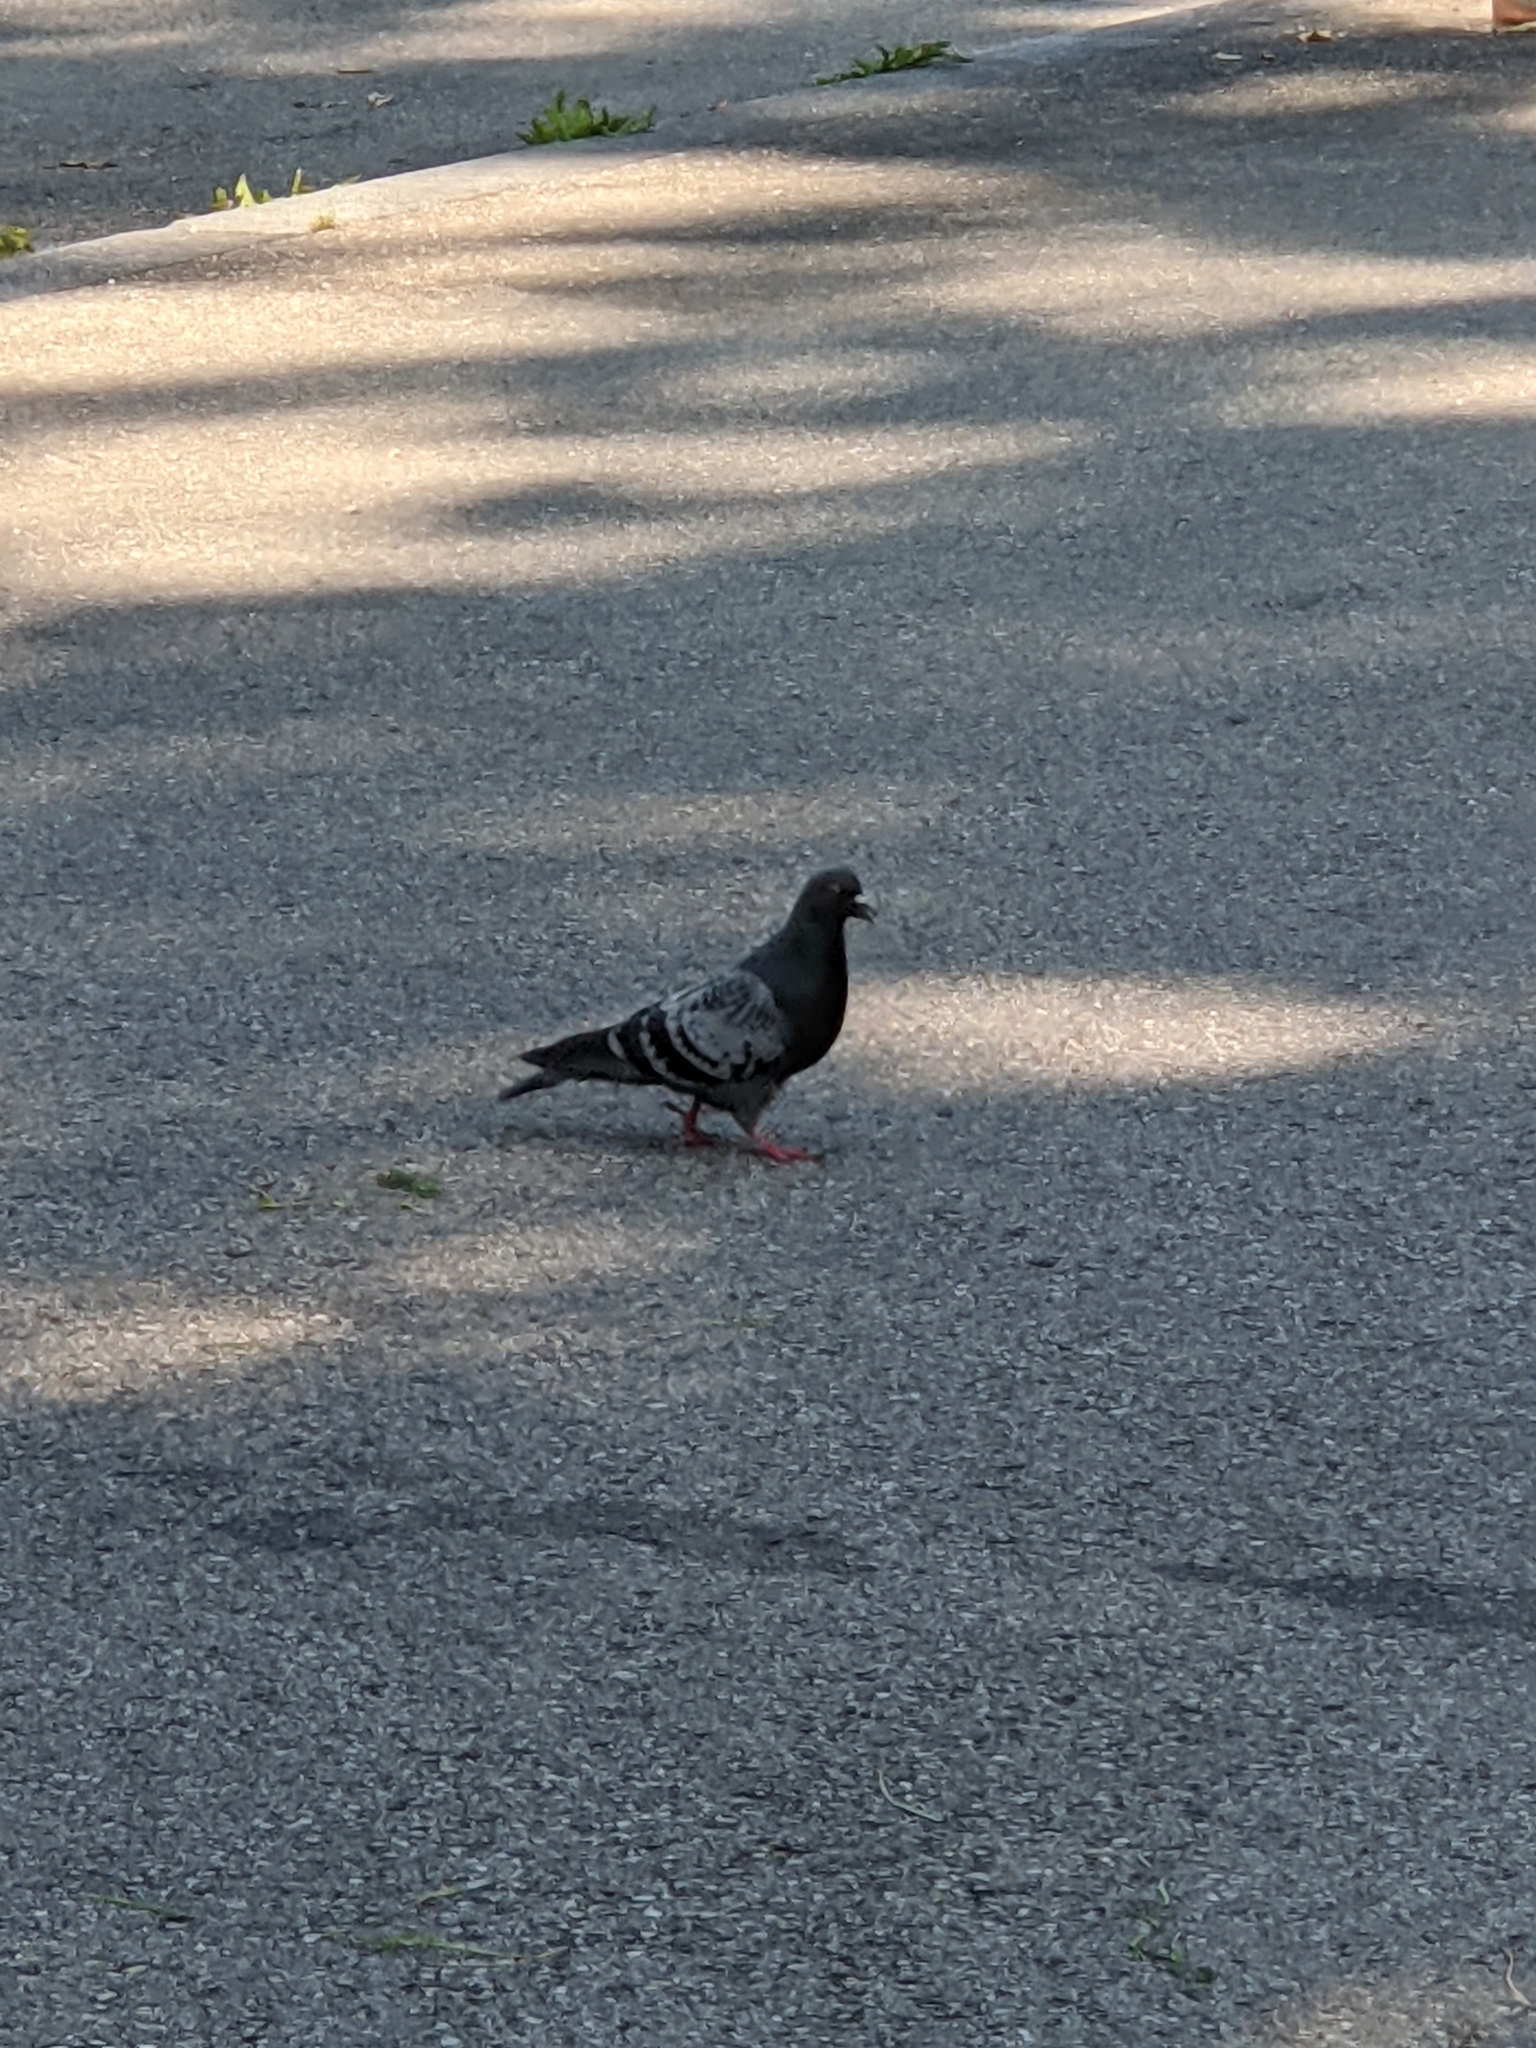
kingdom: Animalia
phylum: Chordata
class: Aves
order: Columbiformes
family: Columbidae
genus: Columba
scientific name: Columba livia
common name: Rock pigeon
